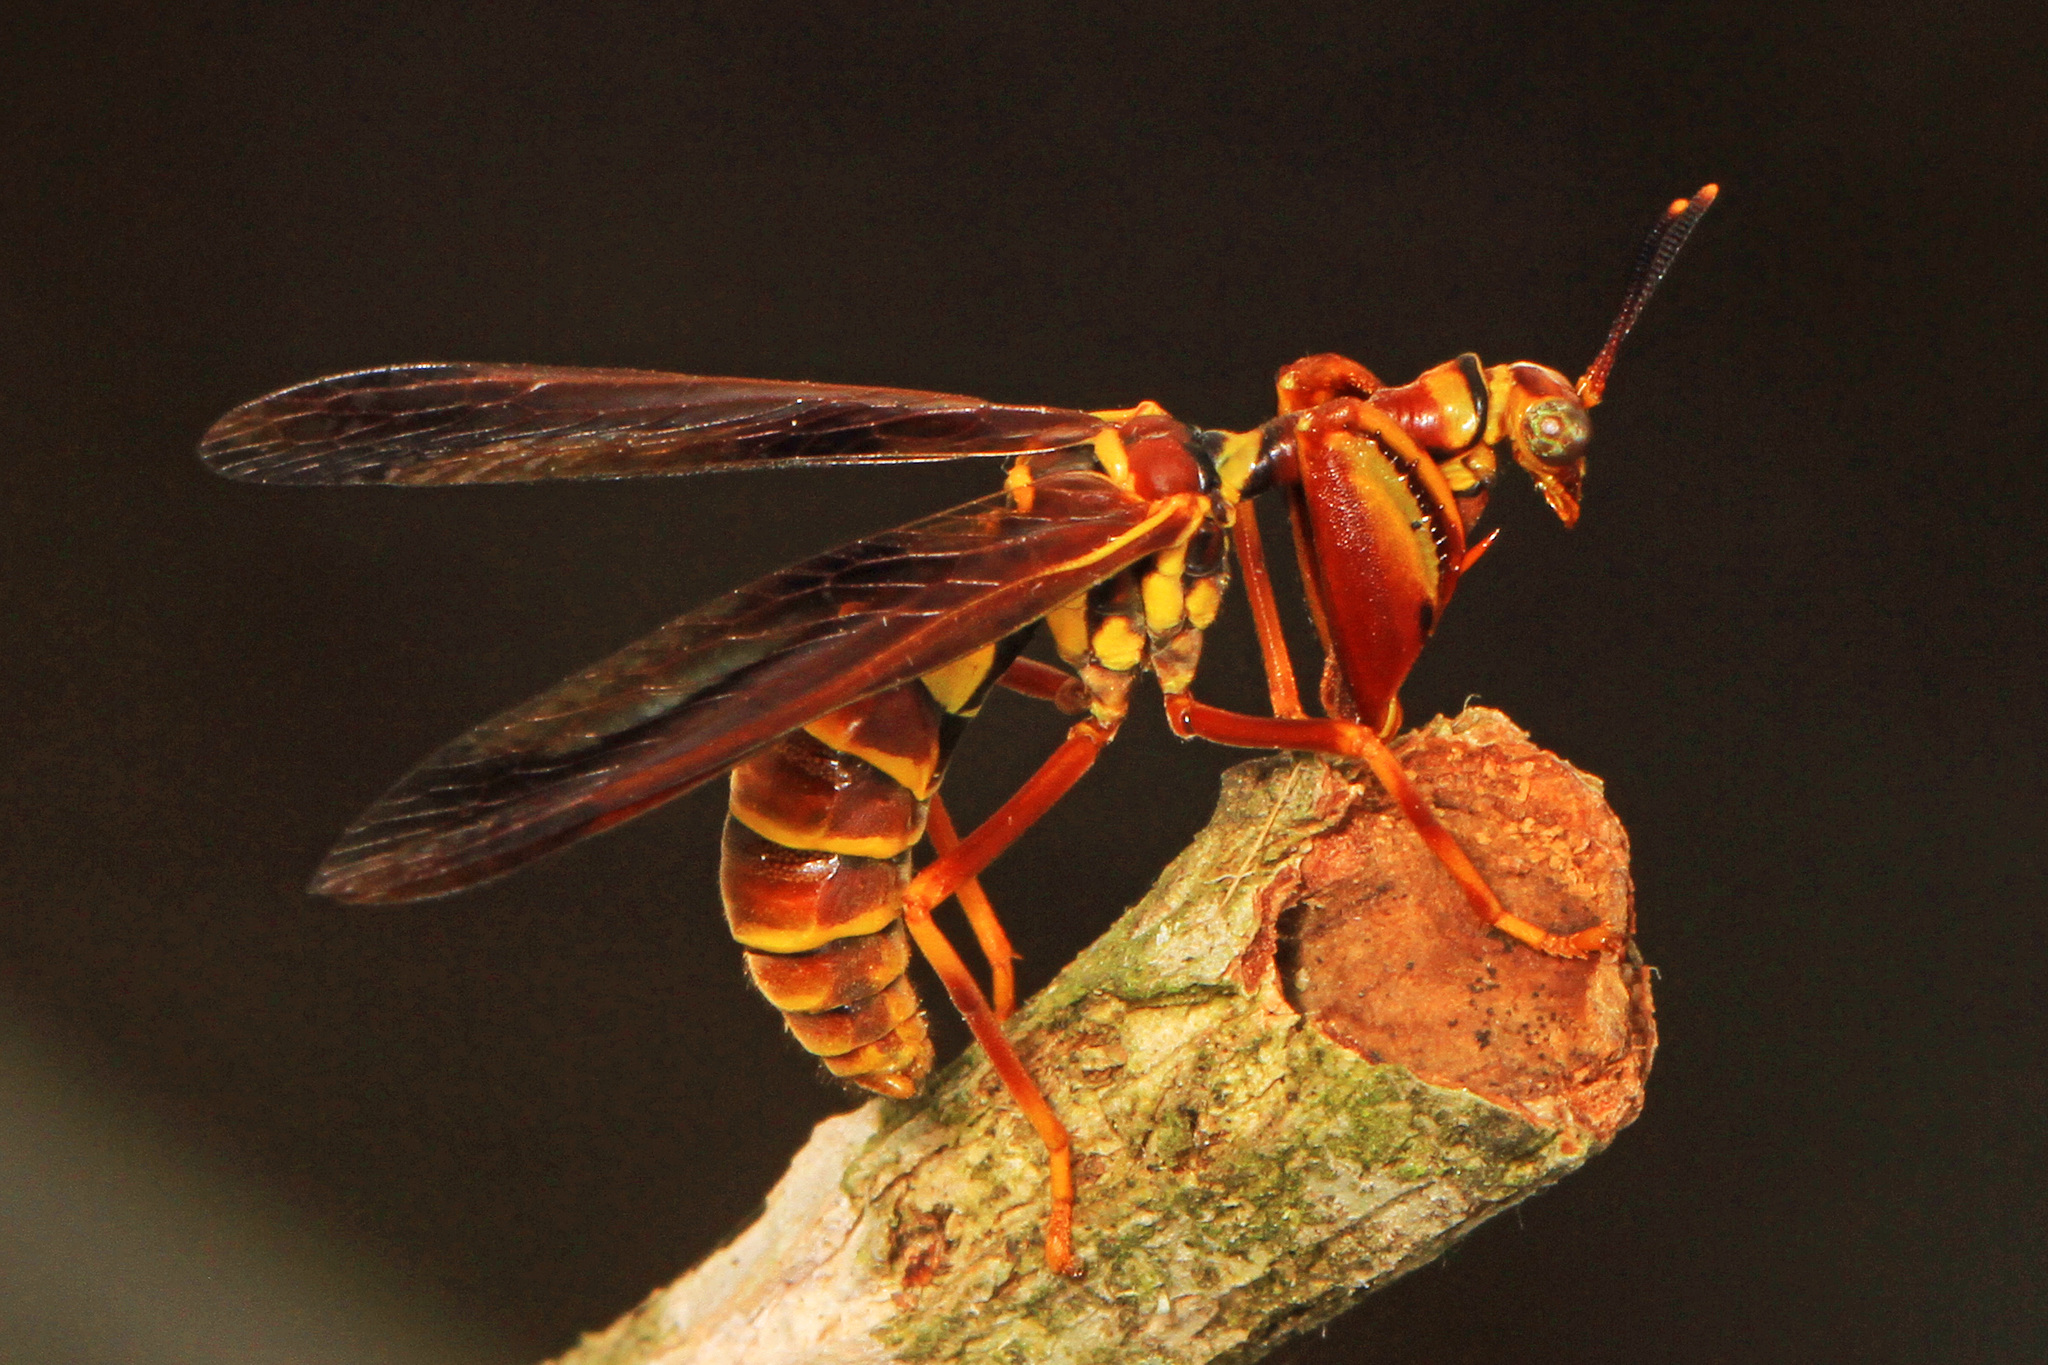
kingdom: Animalia
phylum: Arthropoda
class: Insecta
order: Neuroptera
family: Mantispidae
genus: Climaciella
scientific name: Climaciella brunnea
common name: Brown wasp mantidfly
